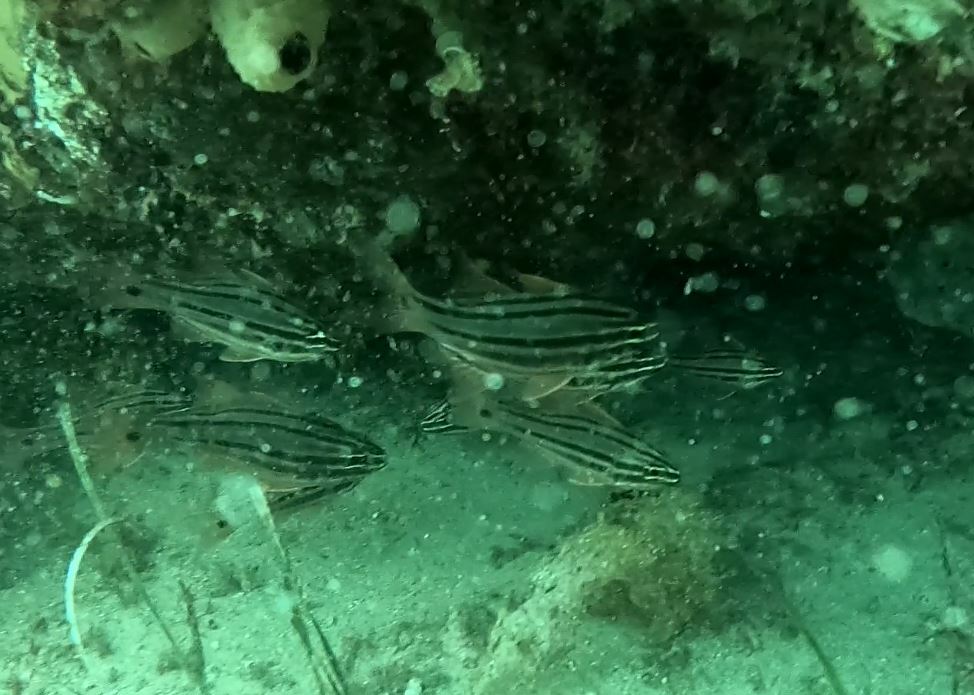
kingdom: Animalia
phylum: Chordata
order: Perciformes
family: Apogonidae
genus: Ostorhinchus
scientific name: Ostorhinchus limenus
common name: Four-banded soldierfish
